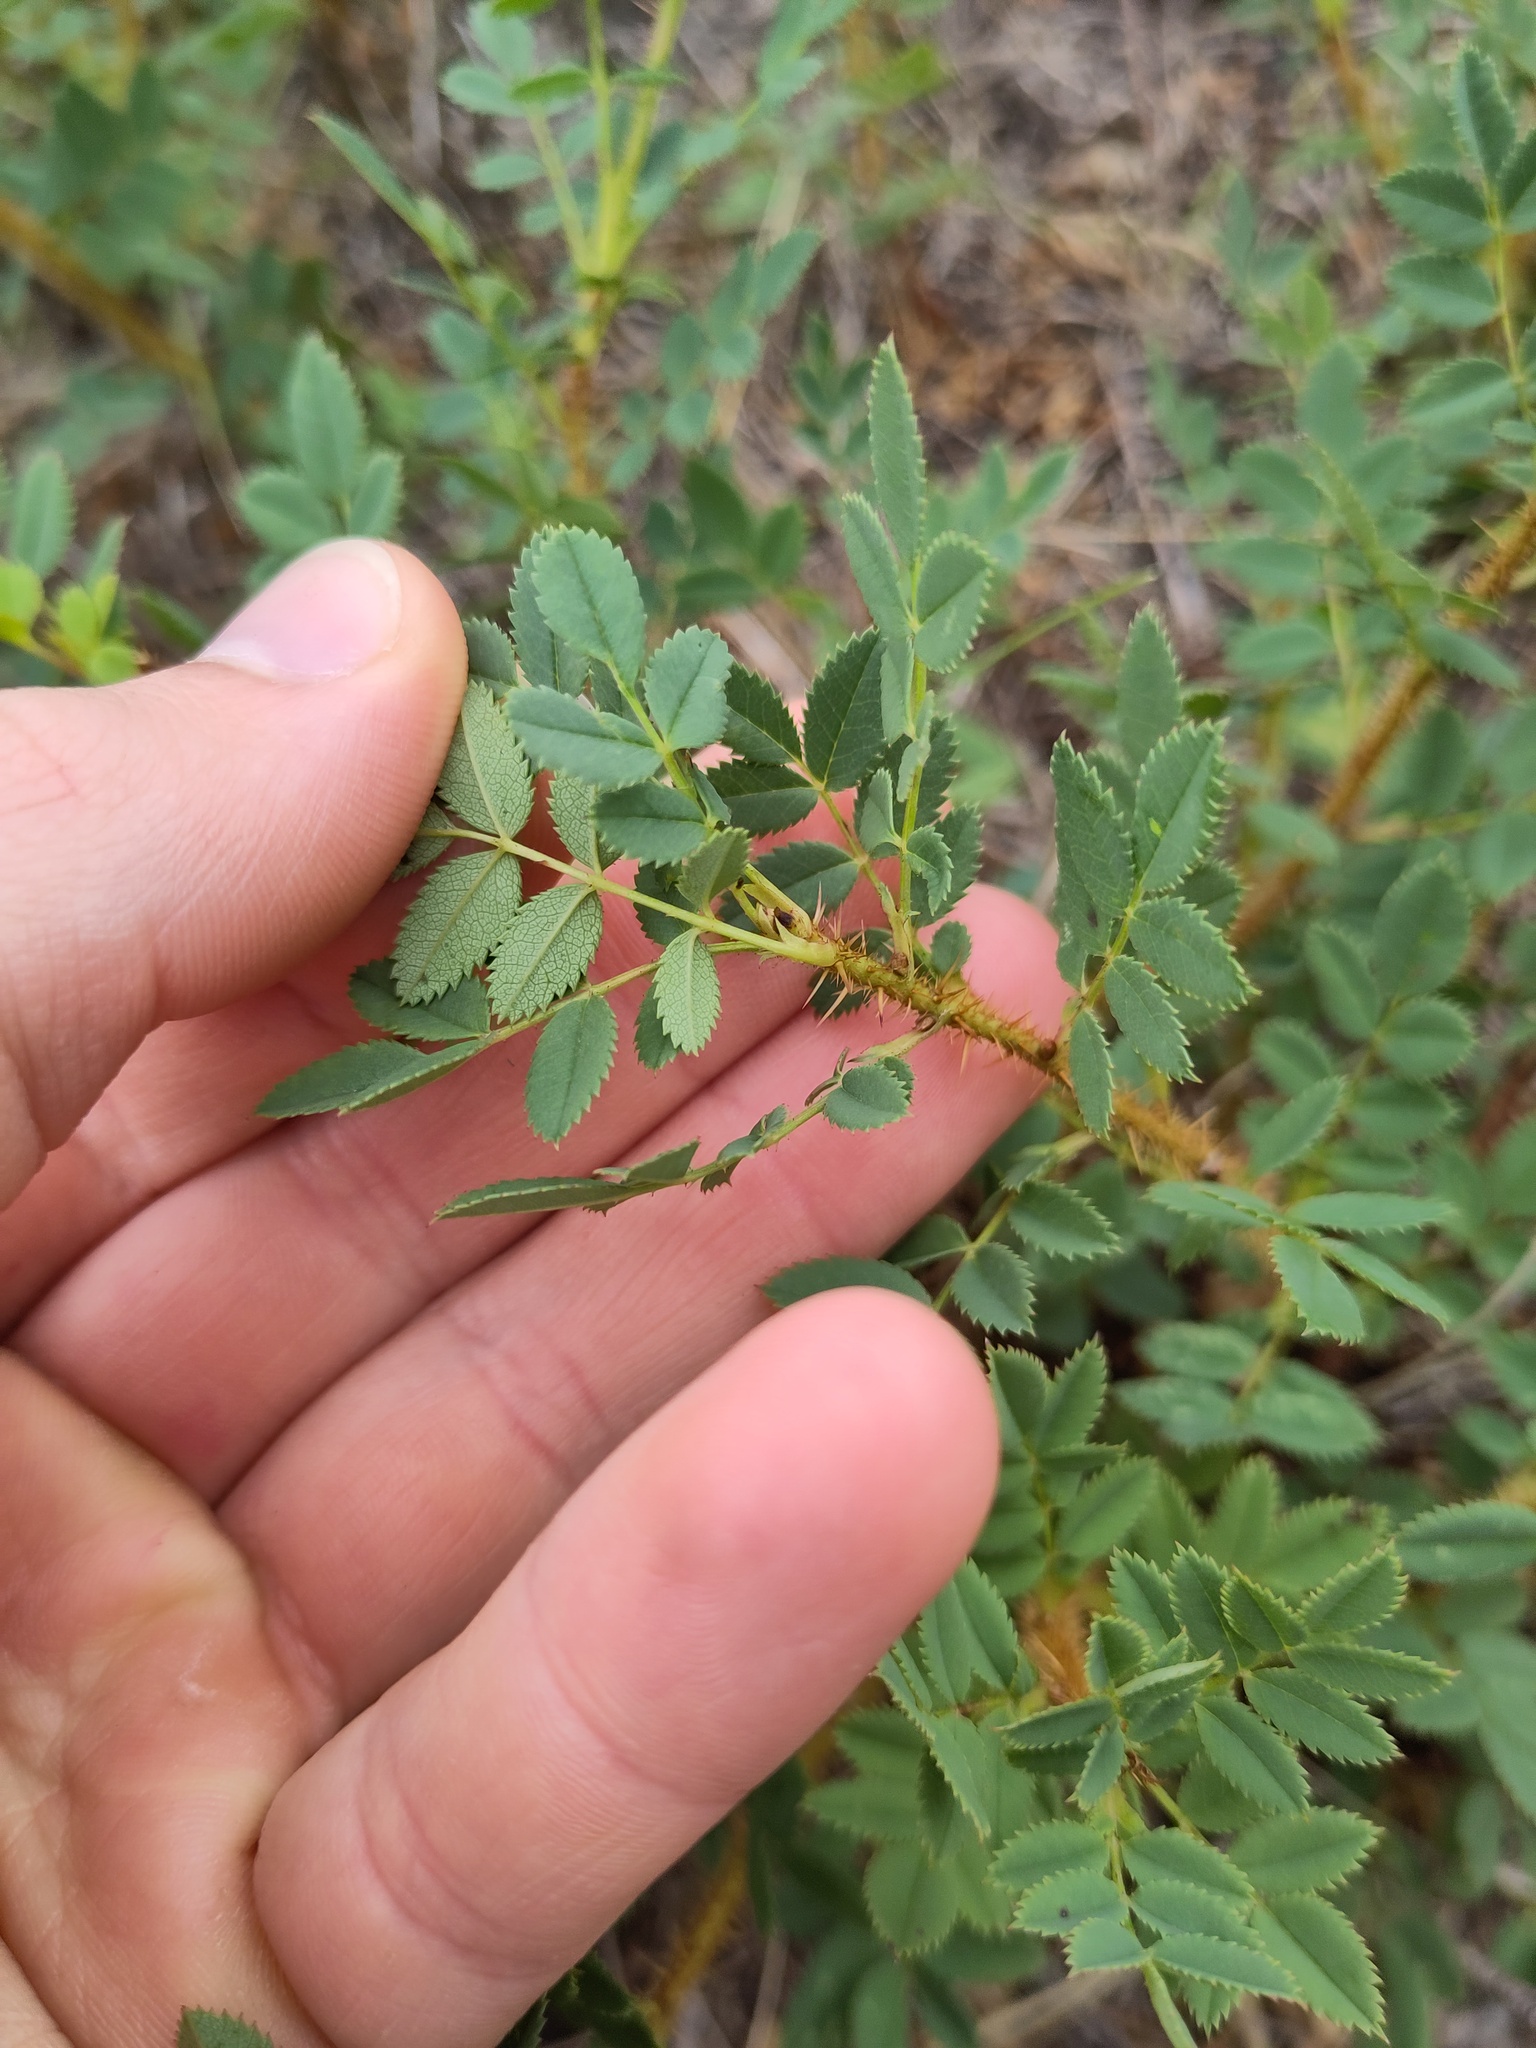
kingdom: Plantae
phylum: Tracheophyta
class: Magnoliopsida
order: Rosales
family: Rosaceae
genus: Rosa
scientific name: Rosa spinosissima
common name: Burnet rose
